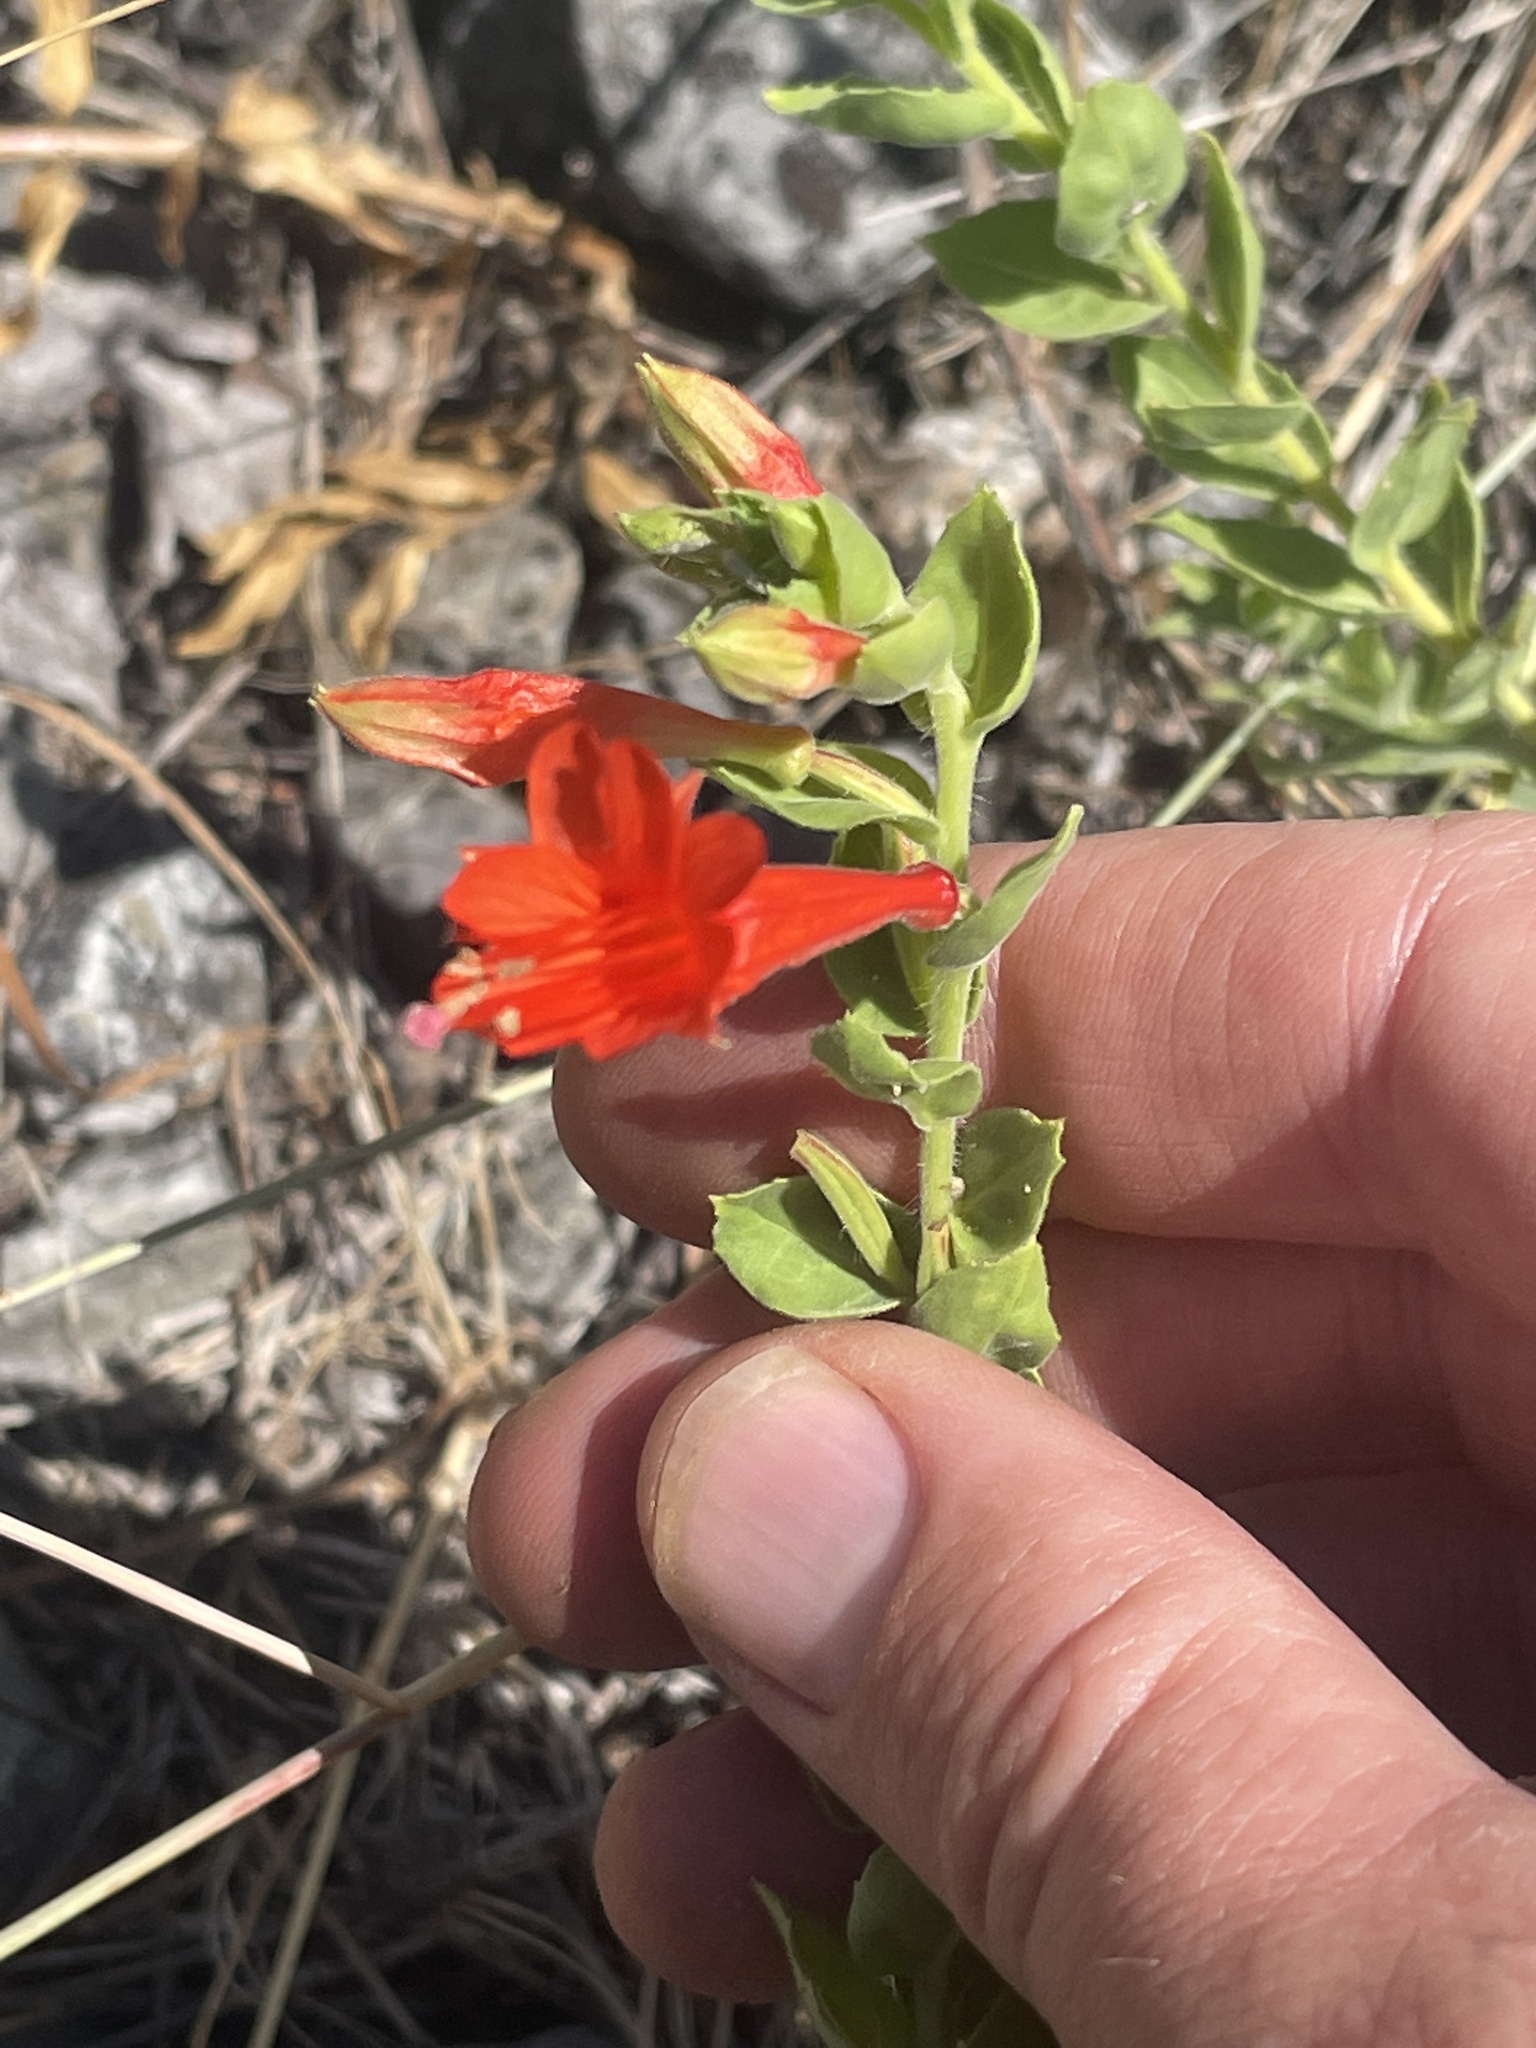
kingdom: Plantae
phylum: Tracheophyta
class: Magnoliopsida
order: Myrtales
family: Onagraceae
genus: Epilobium
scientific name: Epilobium canum
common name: California-fuchsia
